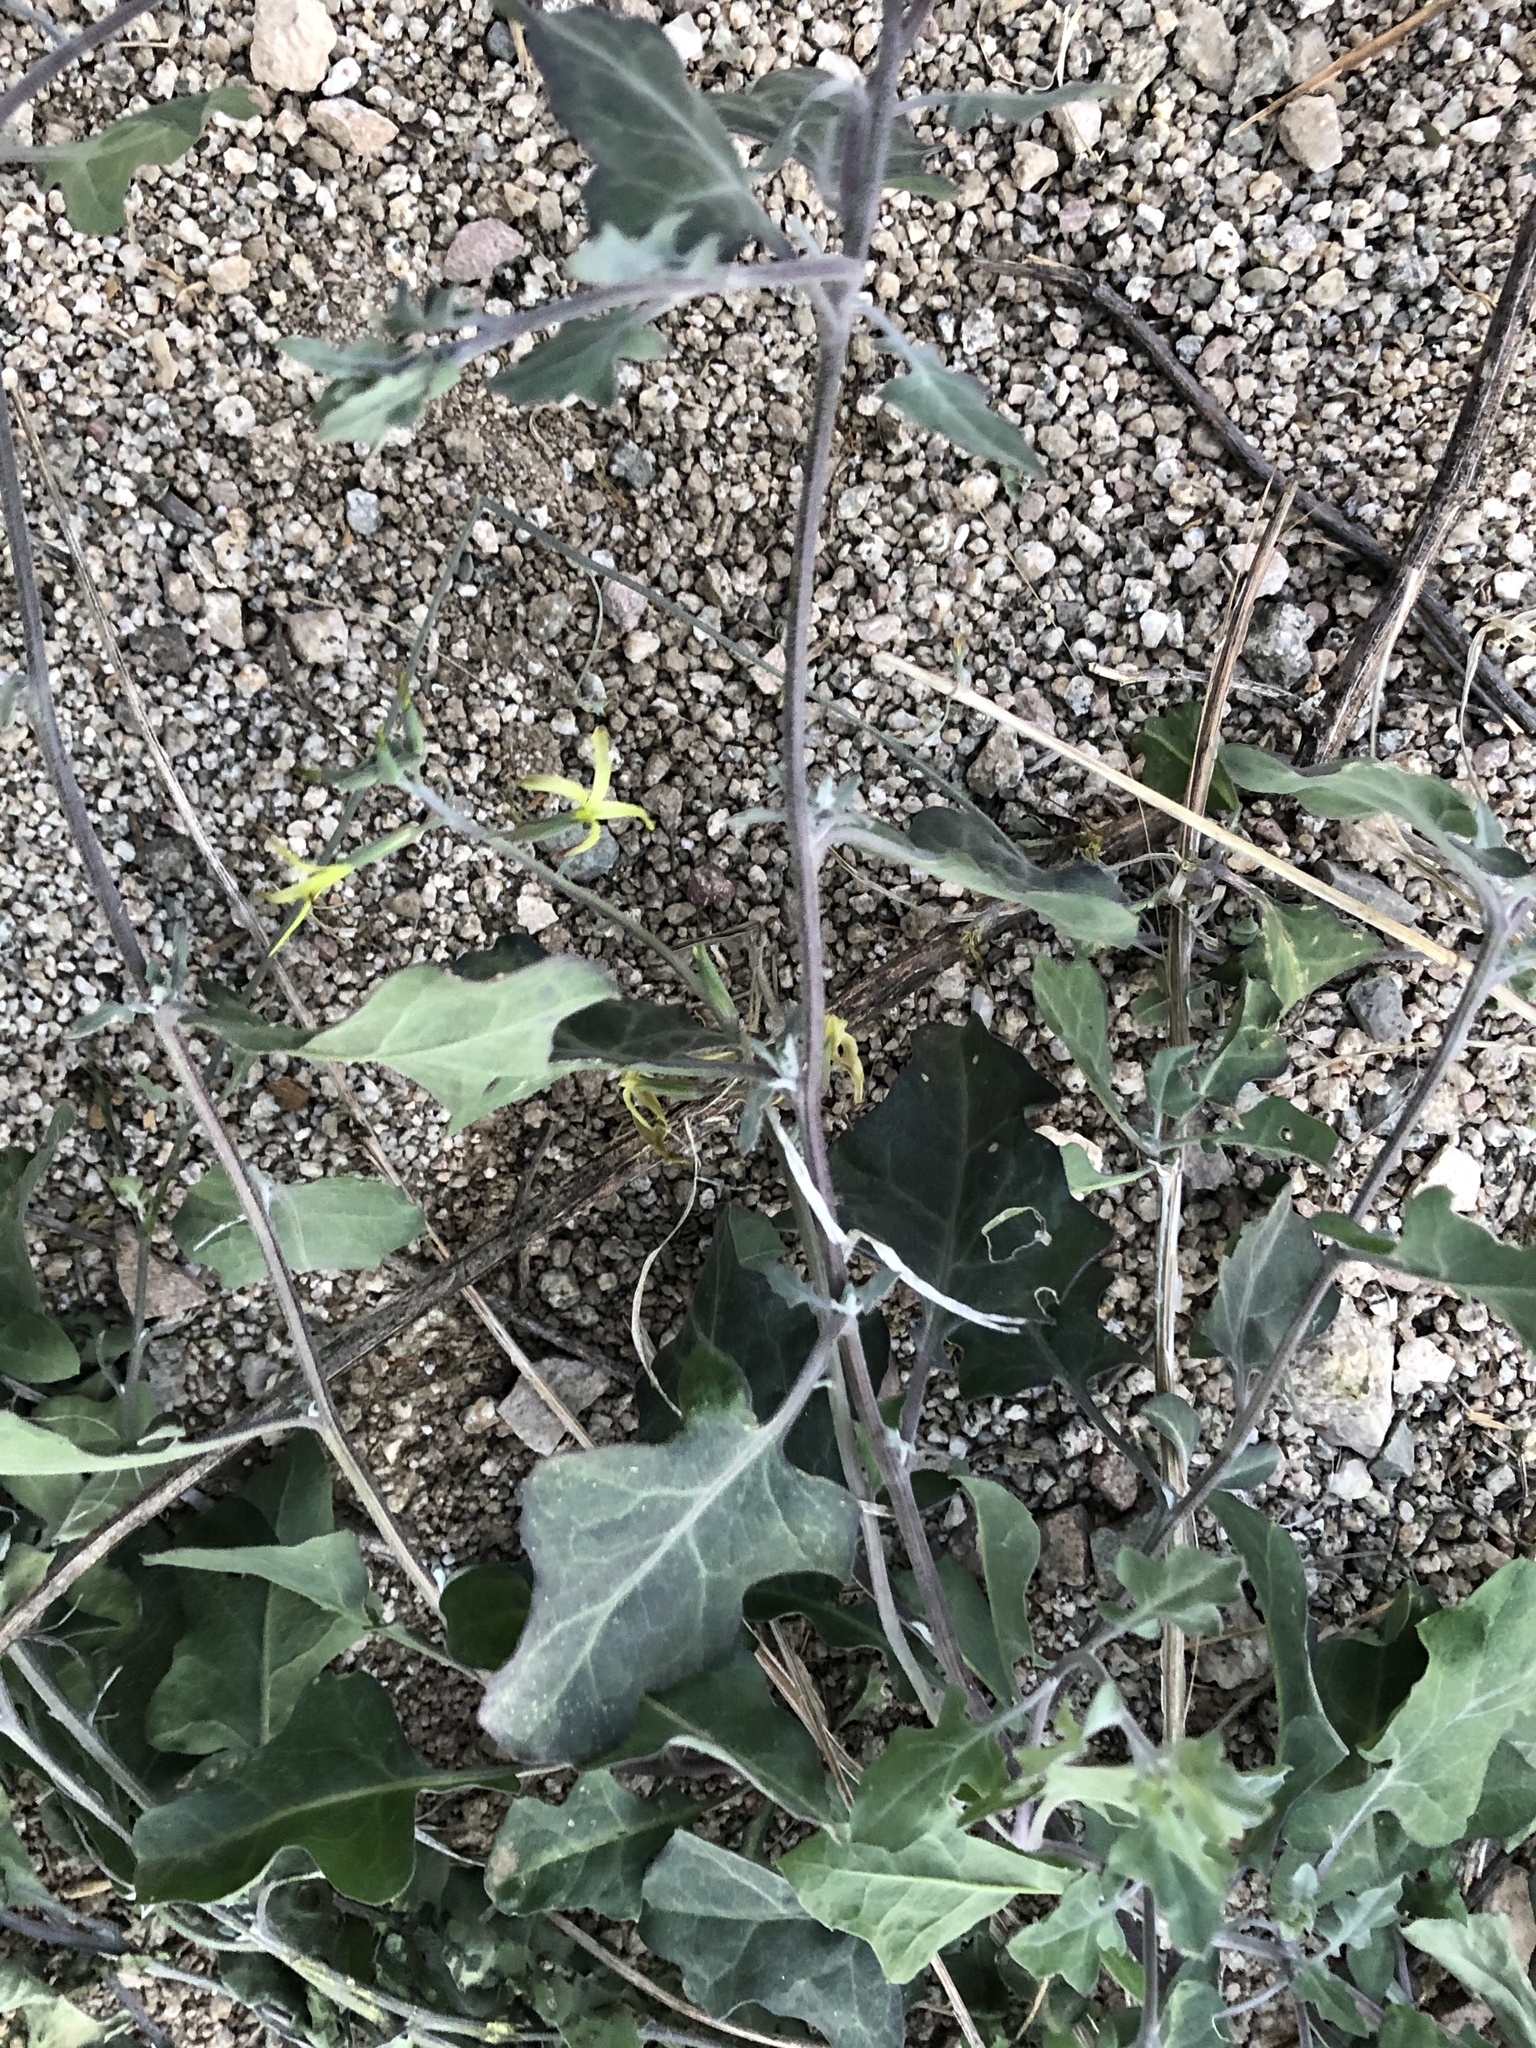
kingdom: Plantae
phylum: Tracheophyta
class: Magnoliopsida
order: Brassicales
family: Brassicaceae
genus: Lyrocarpa
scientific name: Lyrocarpa coulteri
